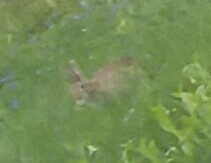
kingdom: Animalia
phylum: Chordata
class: Mammalia
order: Lagomorpha
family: Leporidae
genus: Sylvilagus
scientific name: Sylvilagus floridanus
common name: Eastern cottontail
